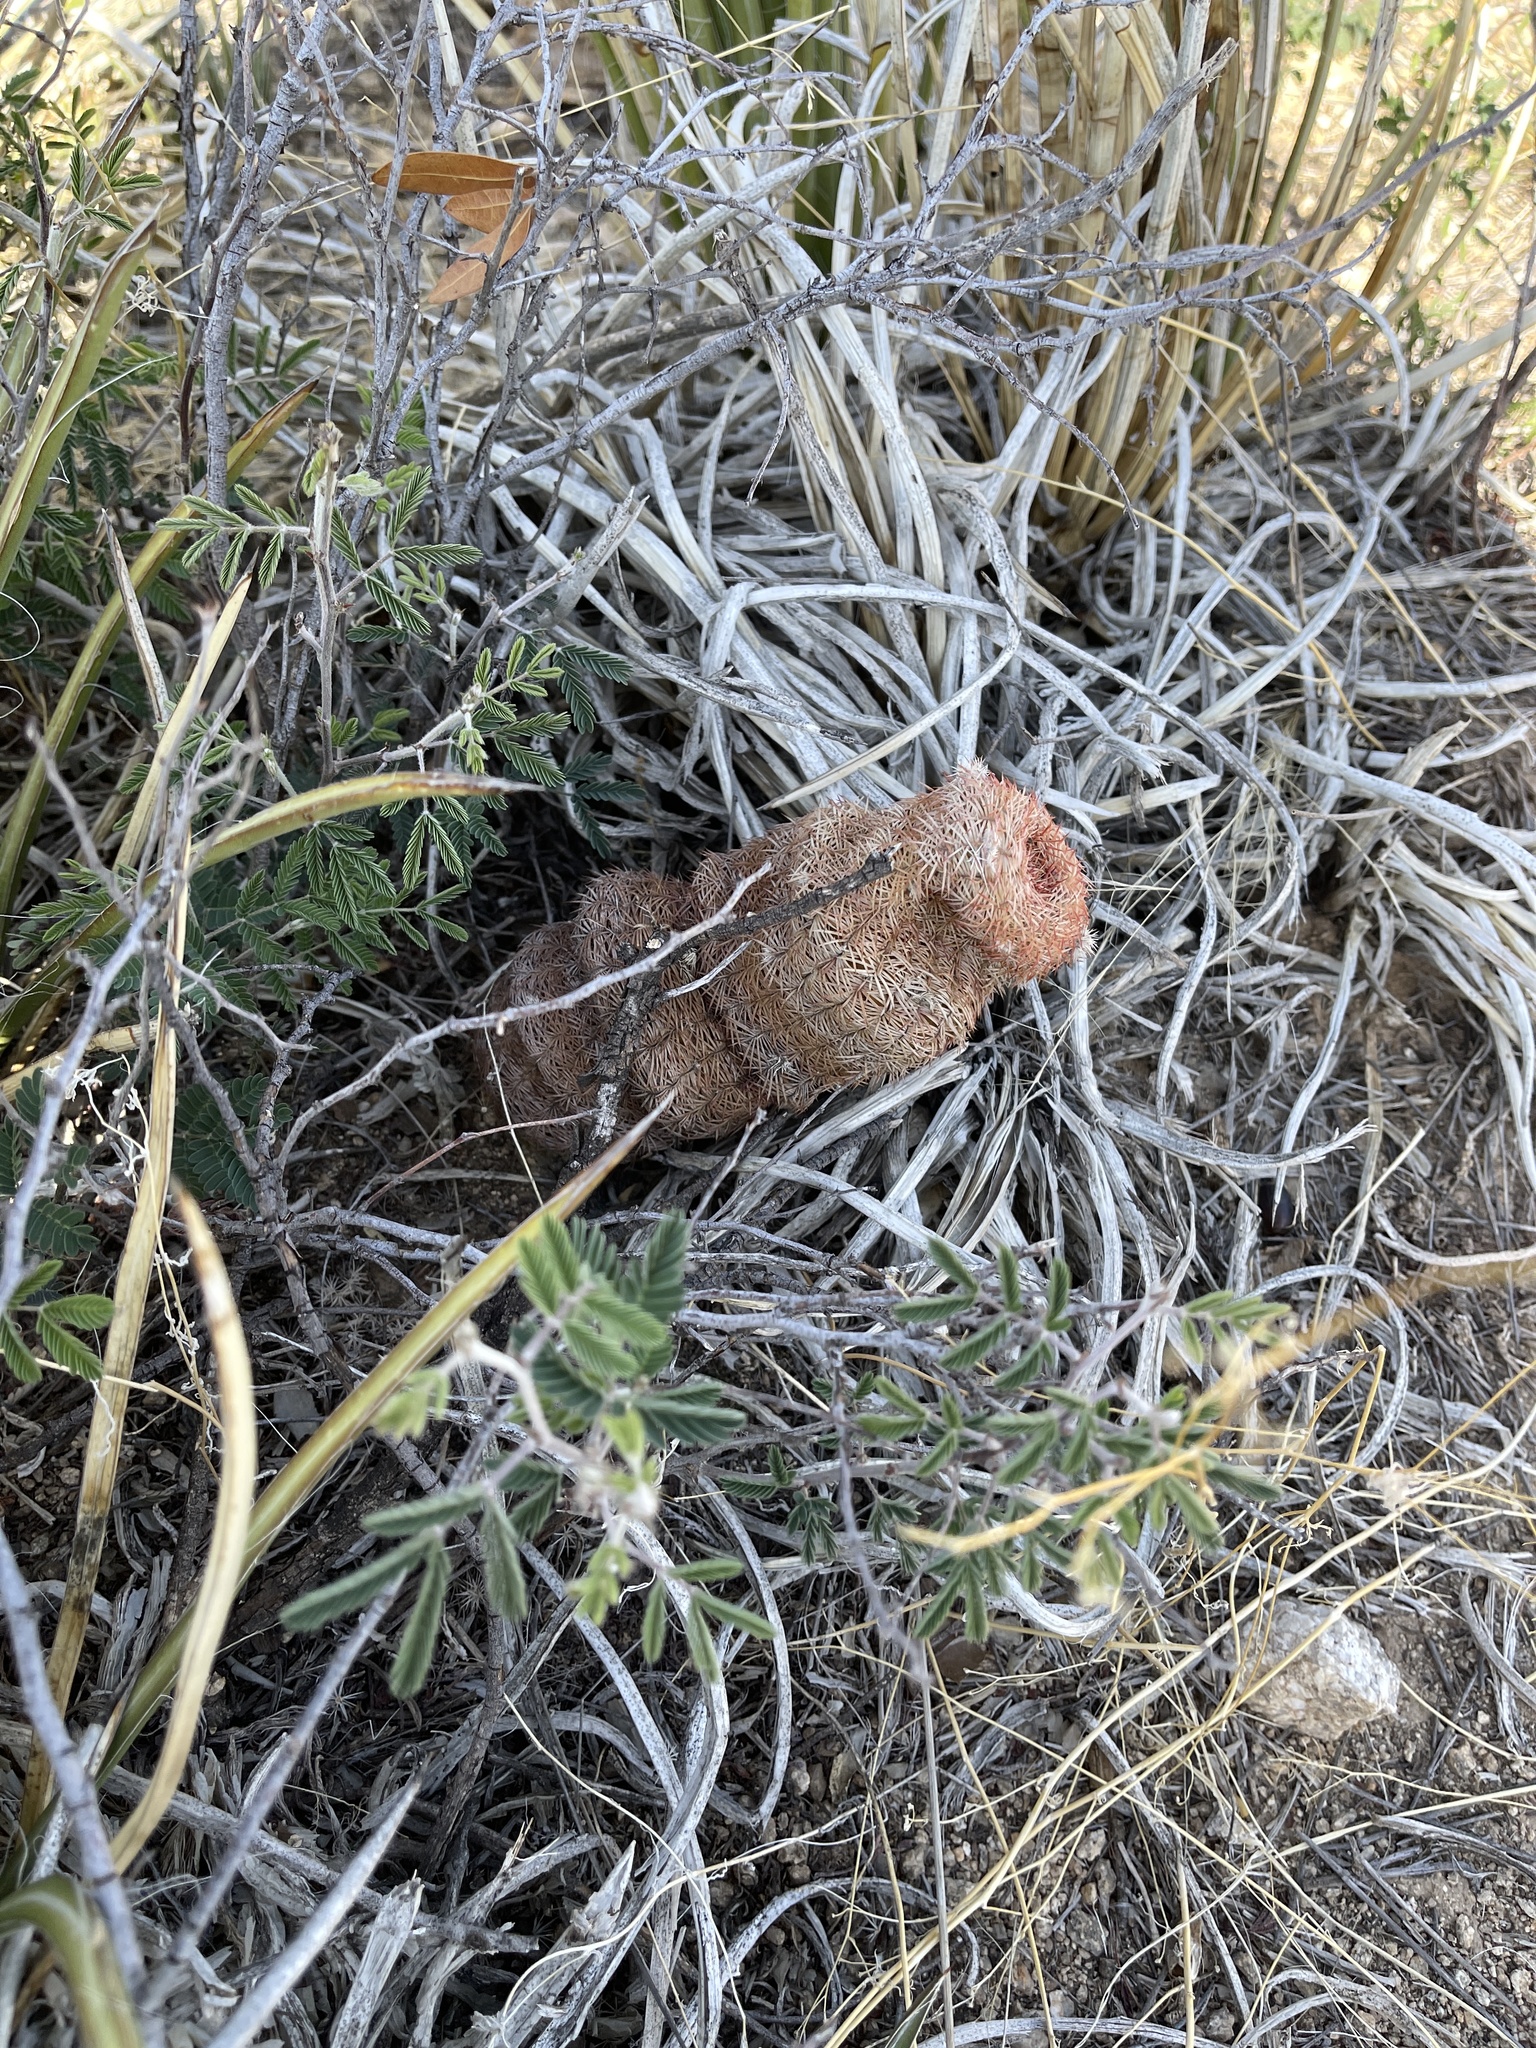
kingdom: Plantae
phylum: Tracheophyta
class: Magnoliopsida
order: Caryophyllales
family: Cactaceae
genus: Echinocereus
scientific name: Echinocereus rigidissimus
